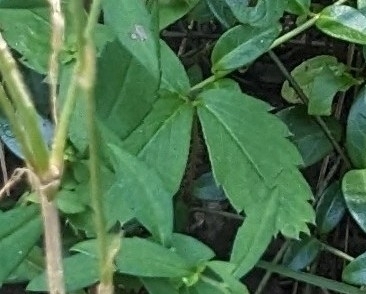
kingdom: Plantae
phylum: Tracheophyta
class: Magnoliopsida
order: Rosales
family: Rosaceae
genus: Fragaria
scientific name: Fragaria virginiana
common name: Thickleaved wild strawberry
